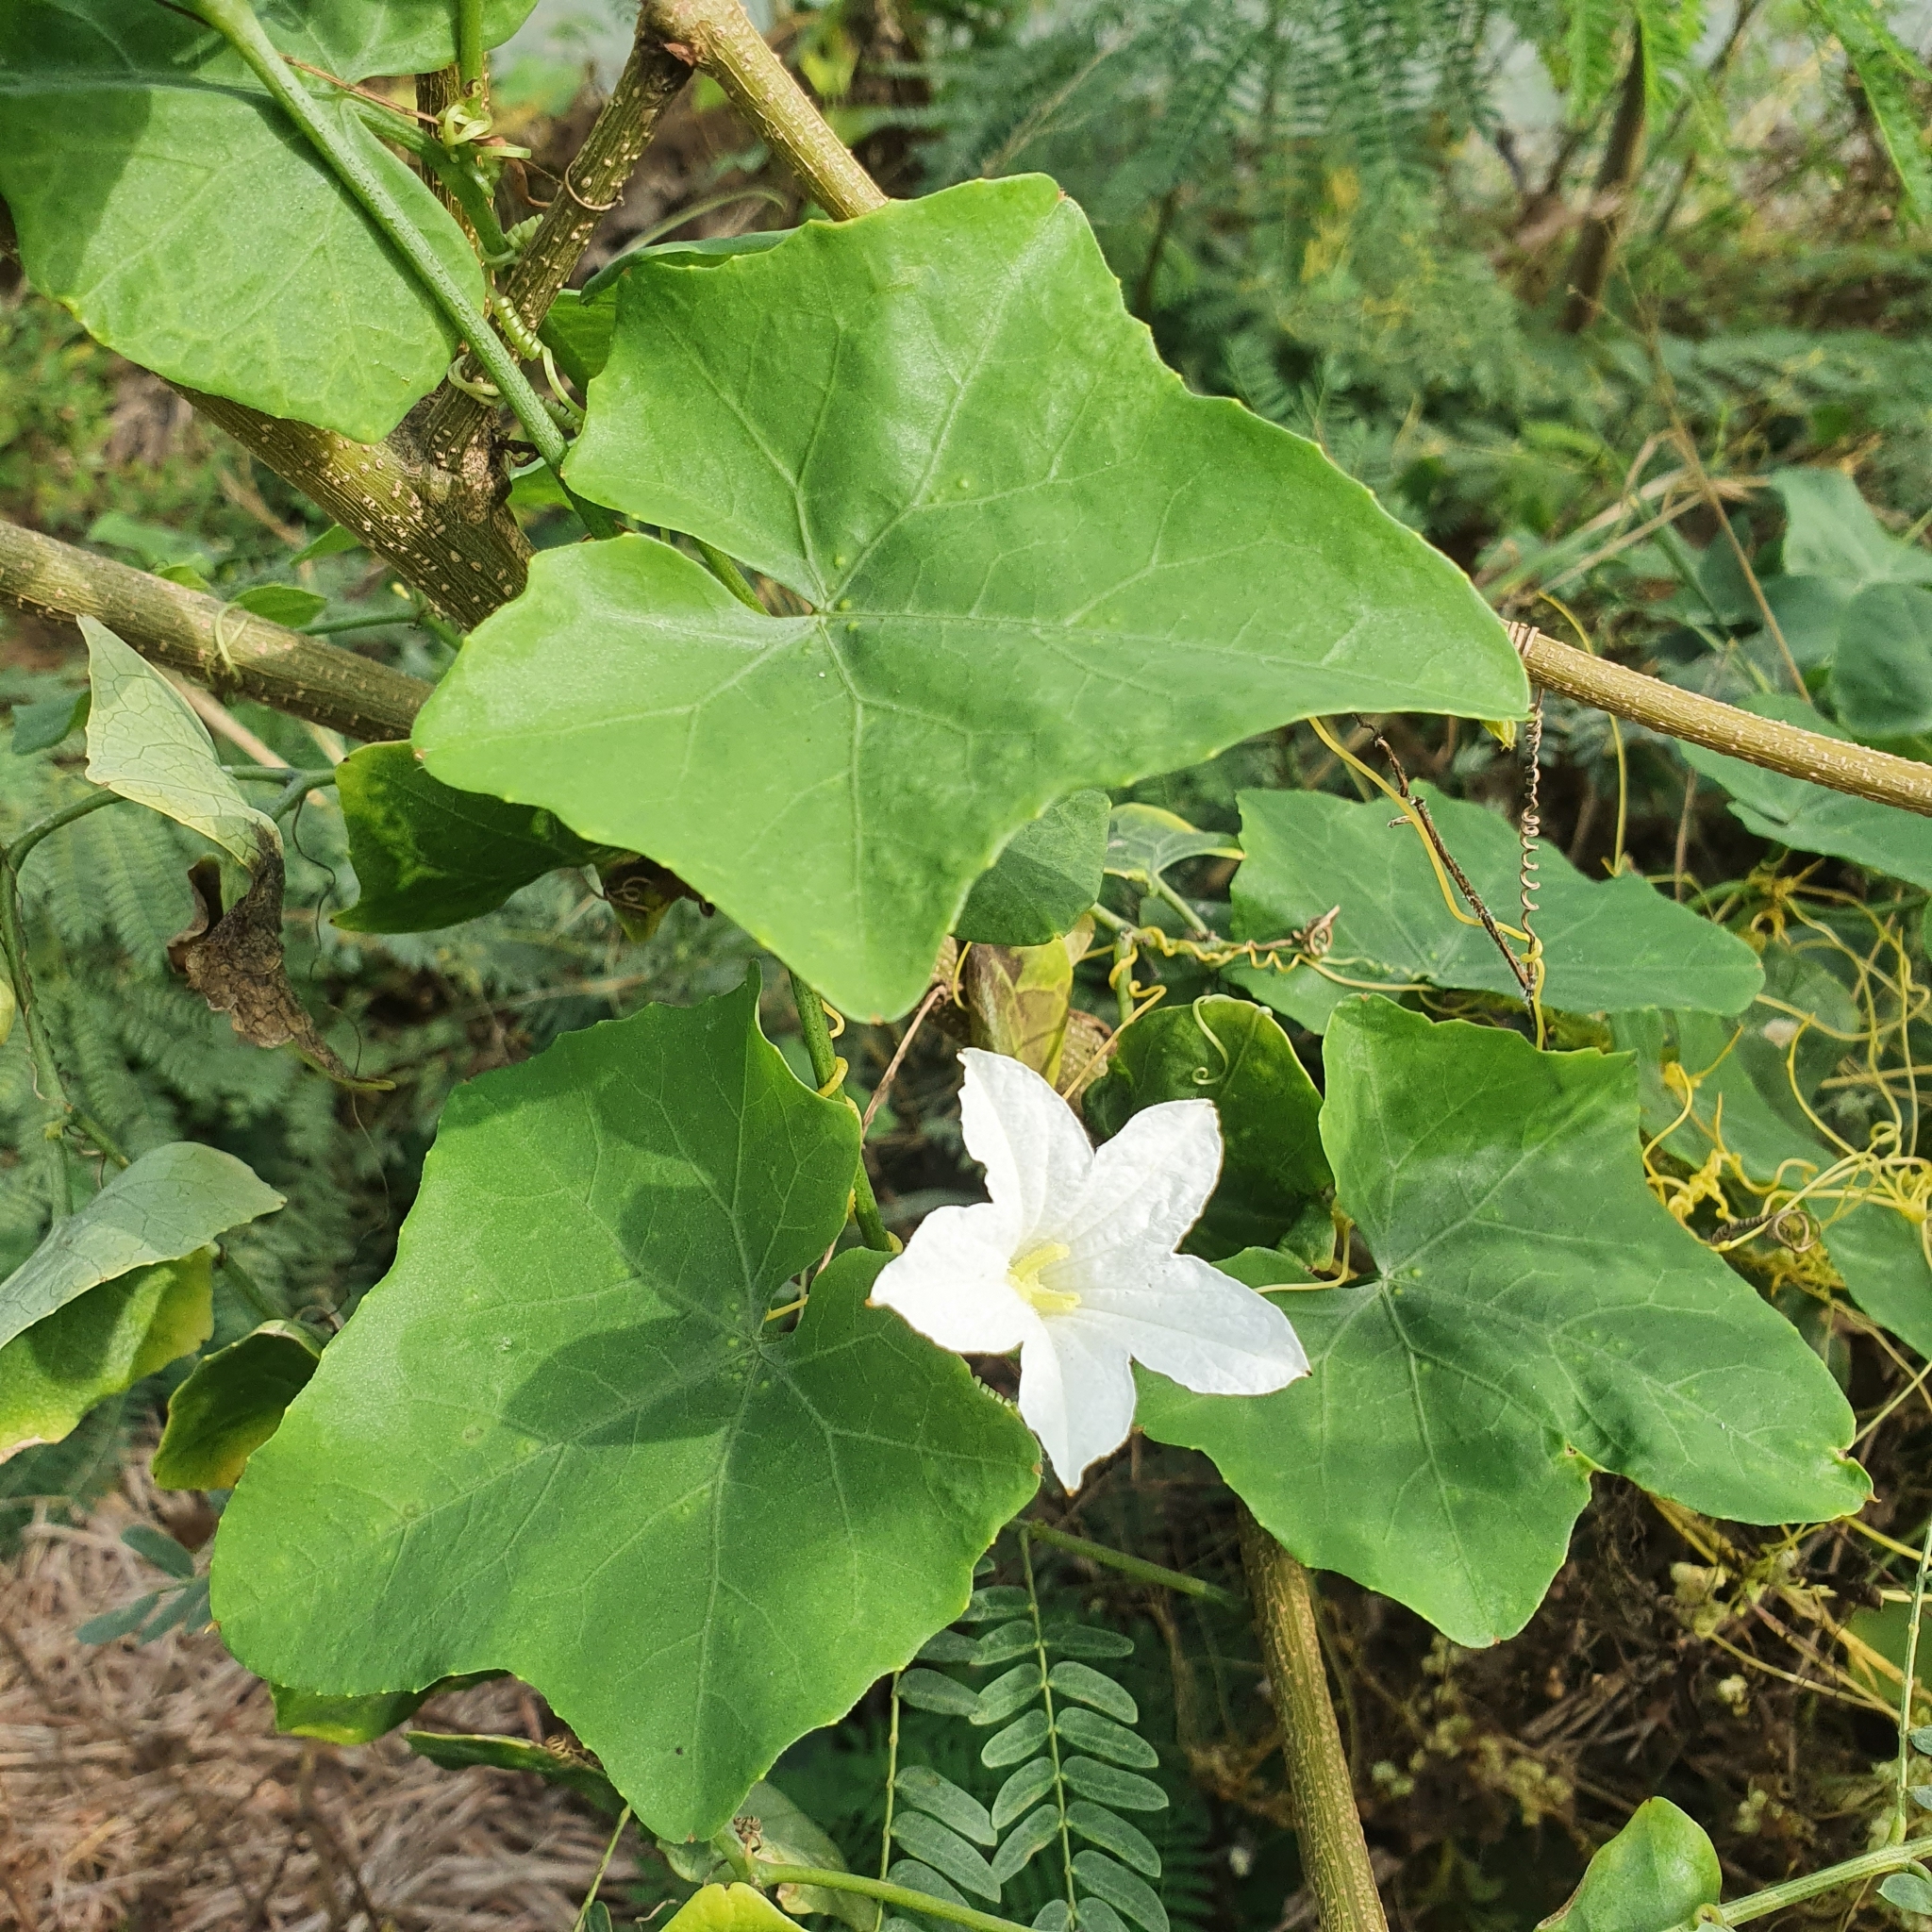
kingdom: Plantae
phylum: Tracheophyta
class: Magnoliopsida
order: Cucurbitales
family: Cucurbitaceae
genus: Coccinia
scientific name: Coccinia grandis
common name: Ivy gourd
